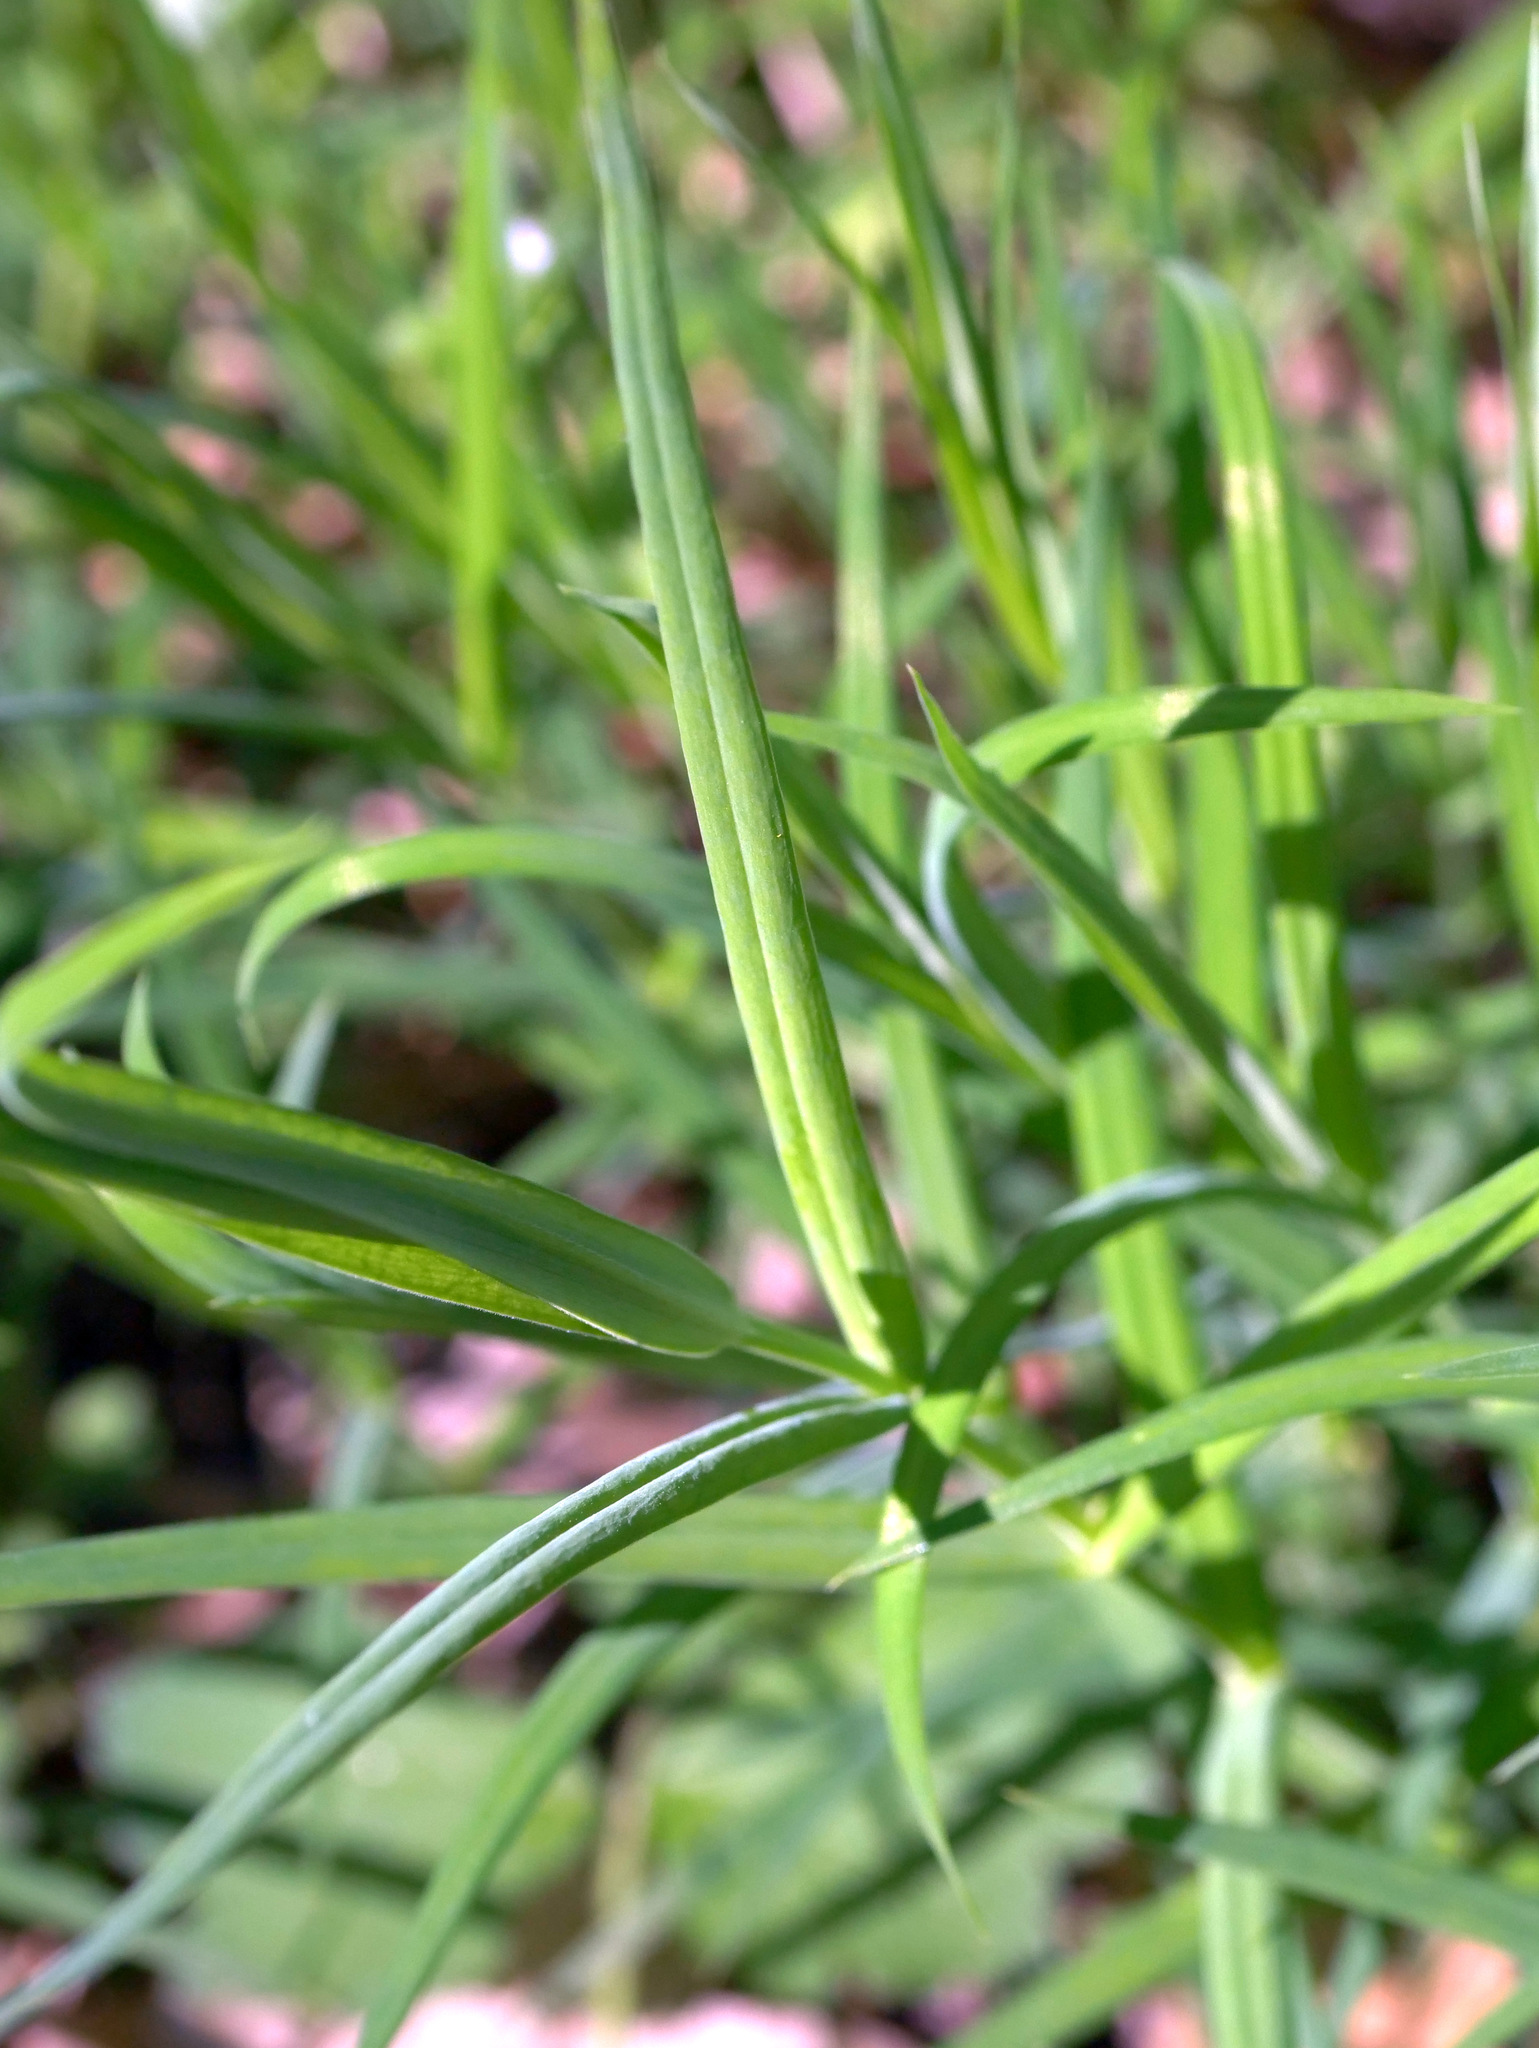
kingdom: Plantae
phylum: Tracheophyta
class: Magnoliopsida
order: Caryophyllales
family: Caryophyllaceae
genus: Rabelera
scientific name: Rabelera holostea
